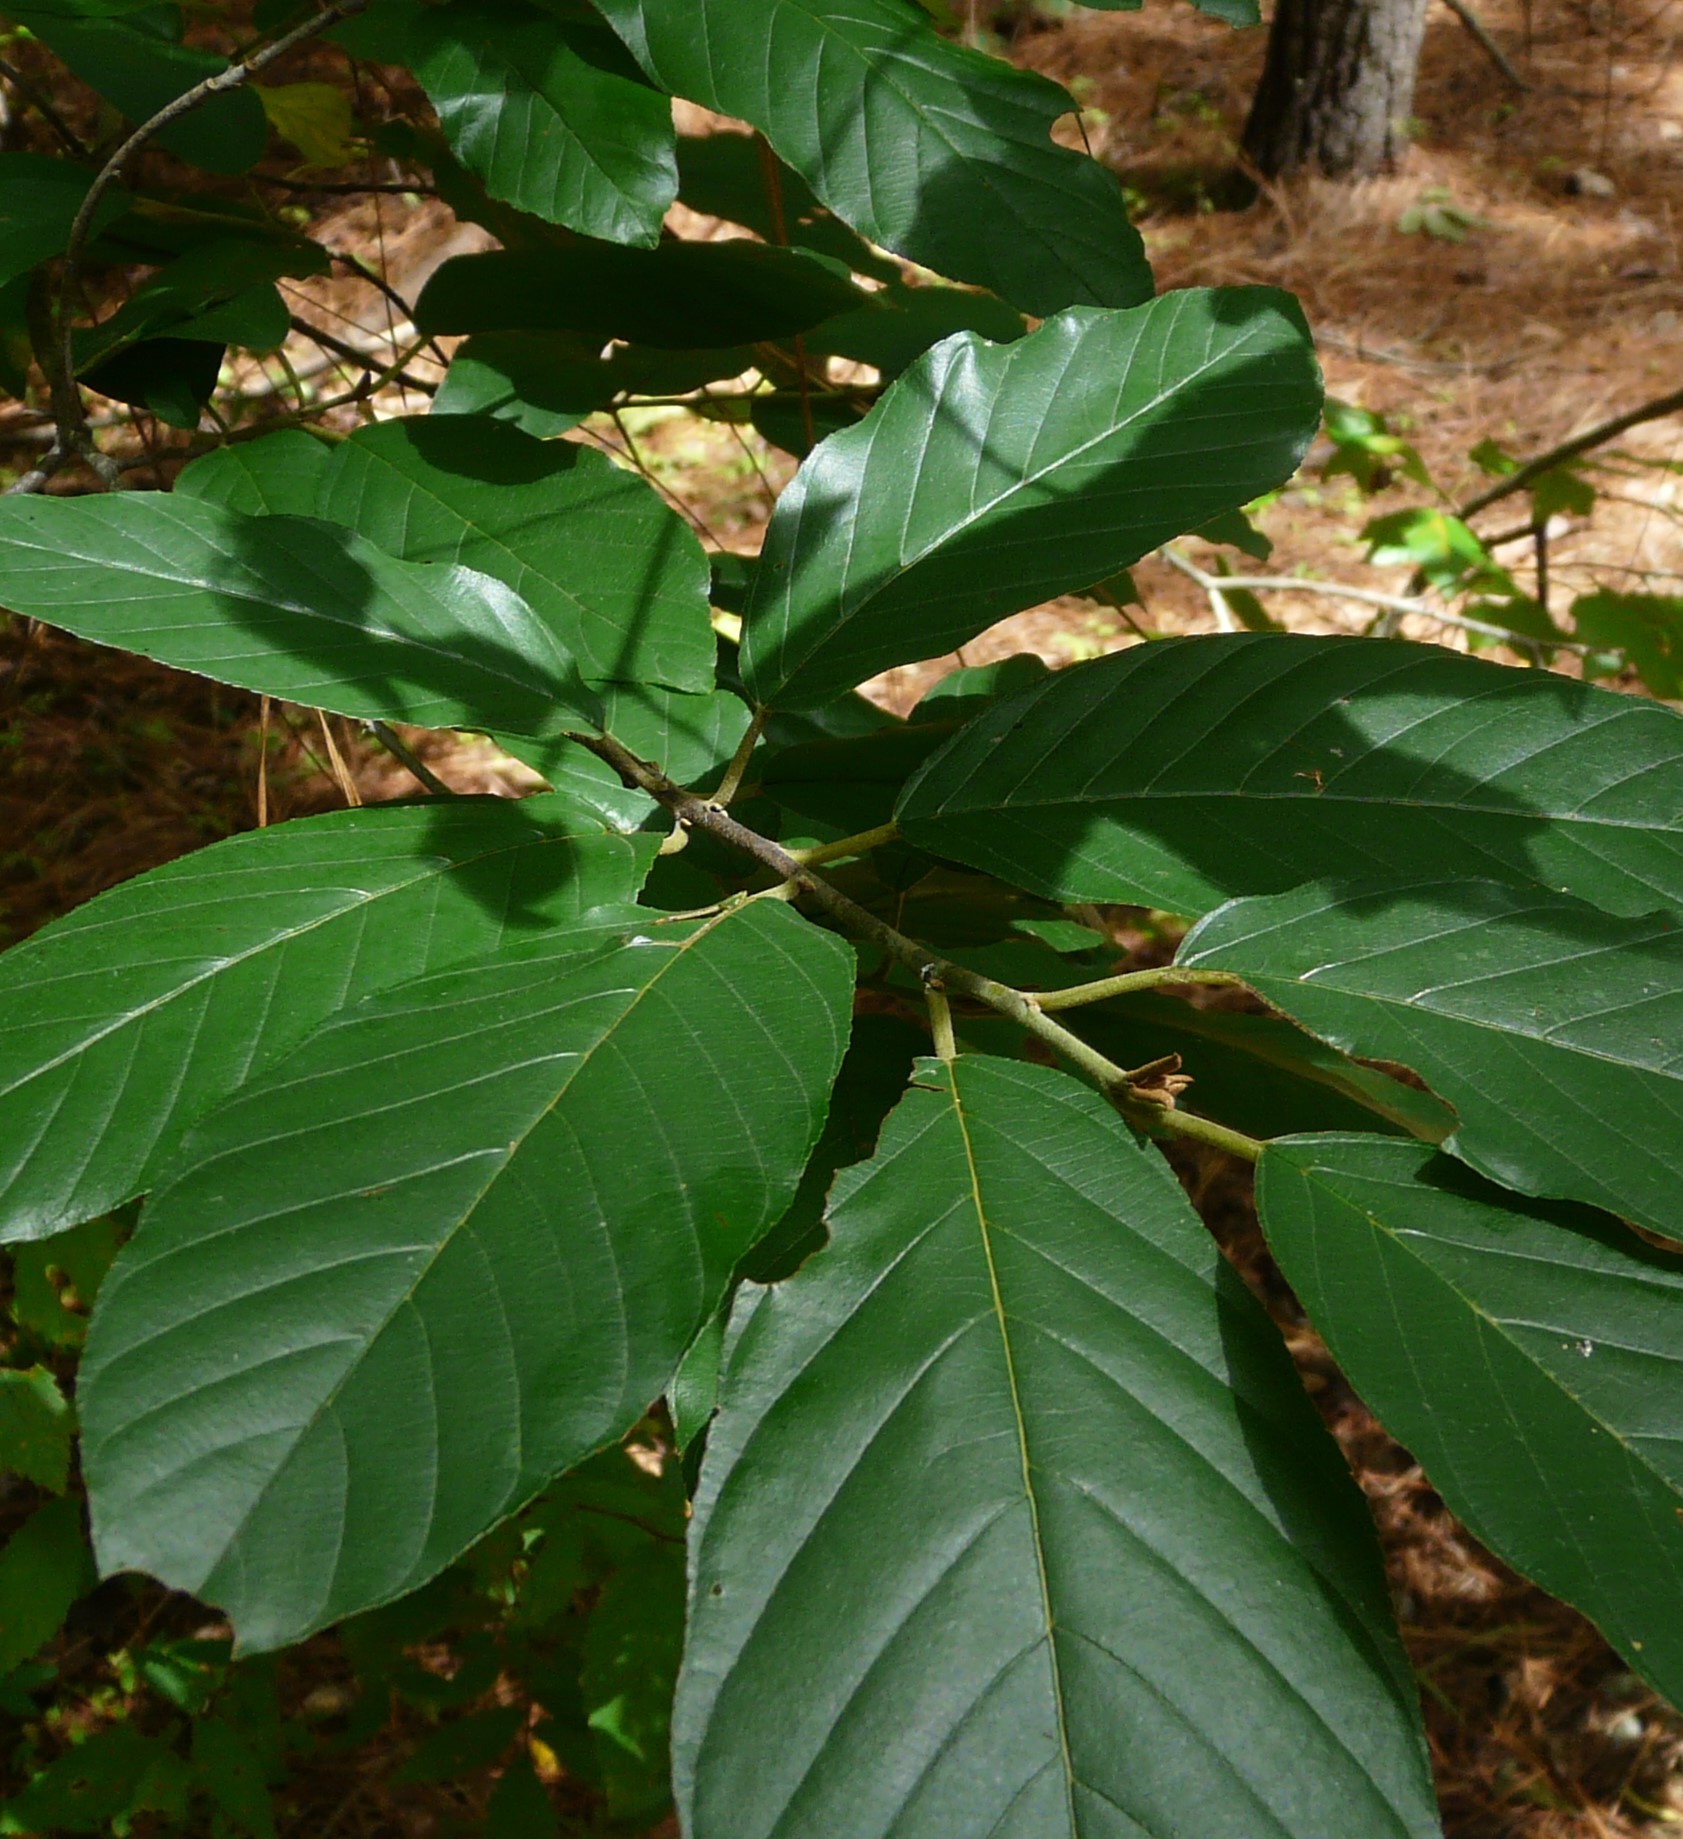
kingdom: Plantae
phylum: Tracheophyta
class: Magnoliopsida
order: Rosales
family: Rhamnaceae
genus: Frangula
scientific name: Frangula caroliniana
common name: Carolina buckthorn
